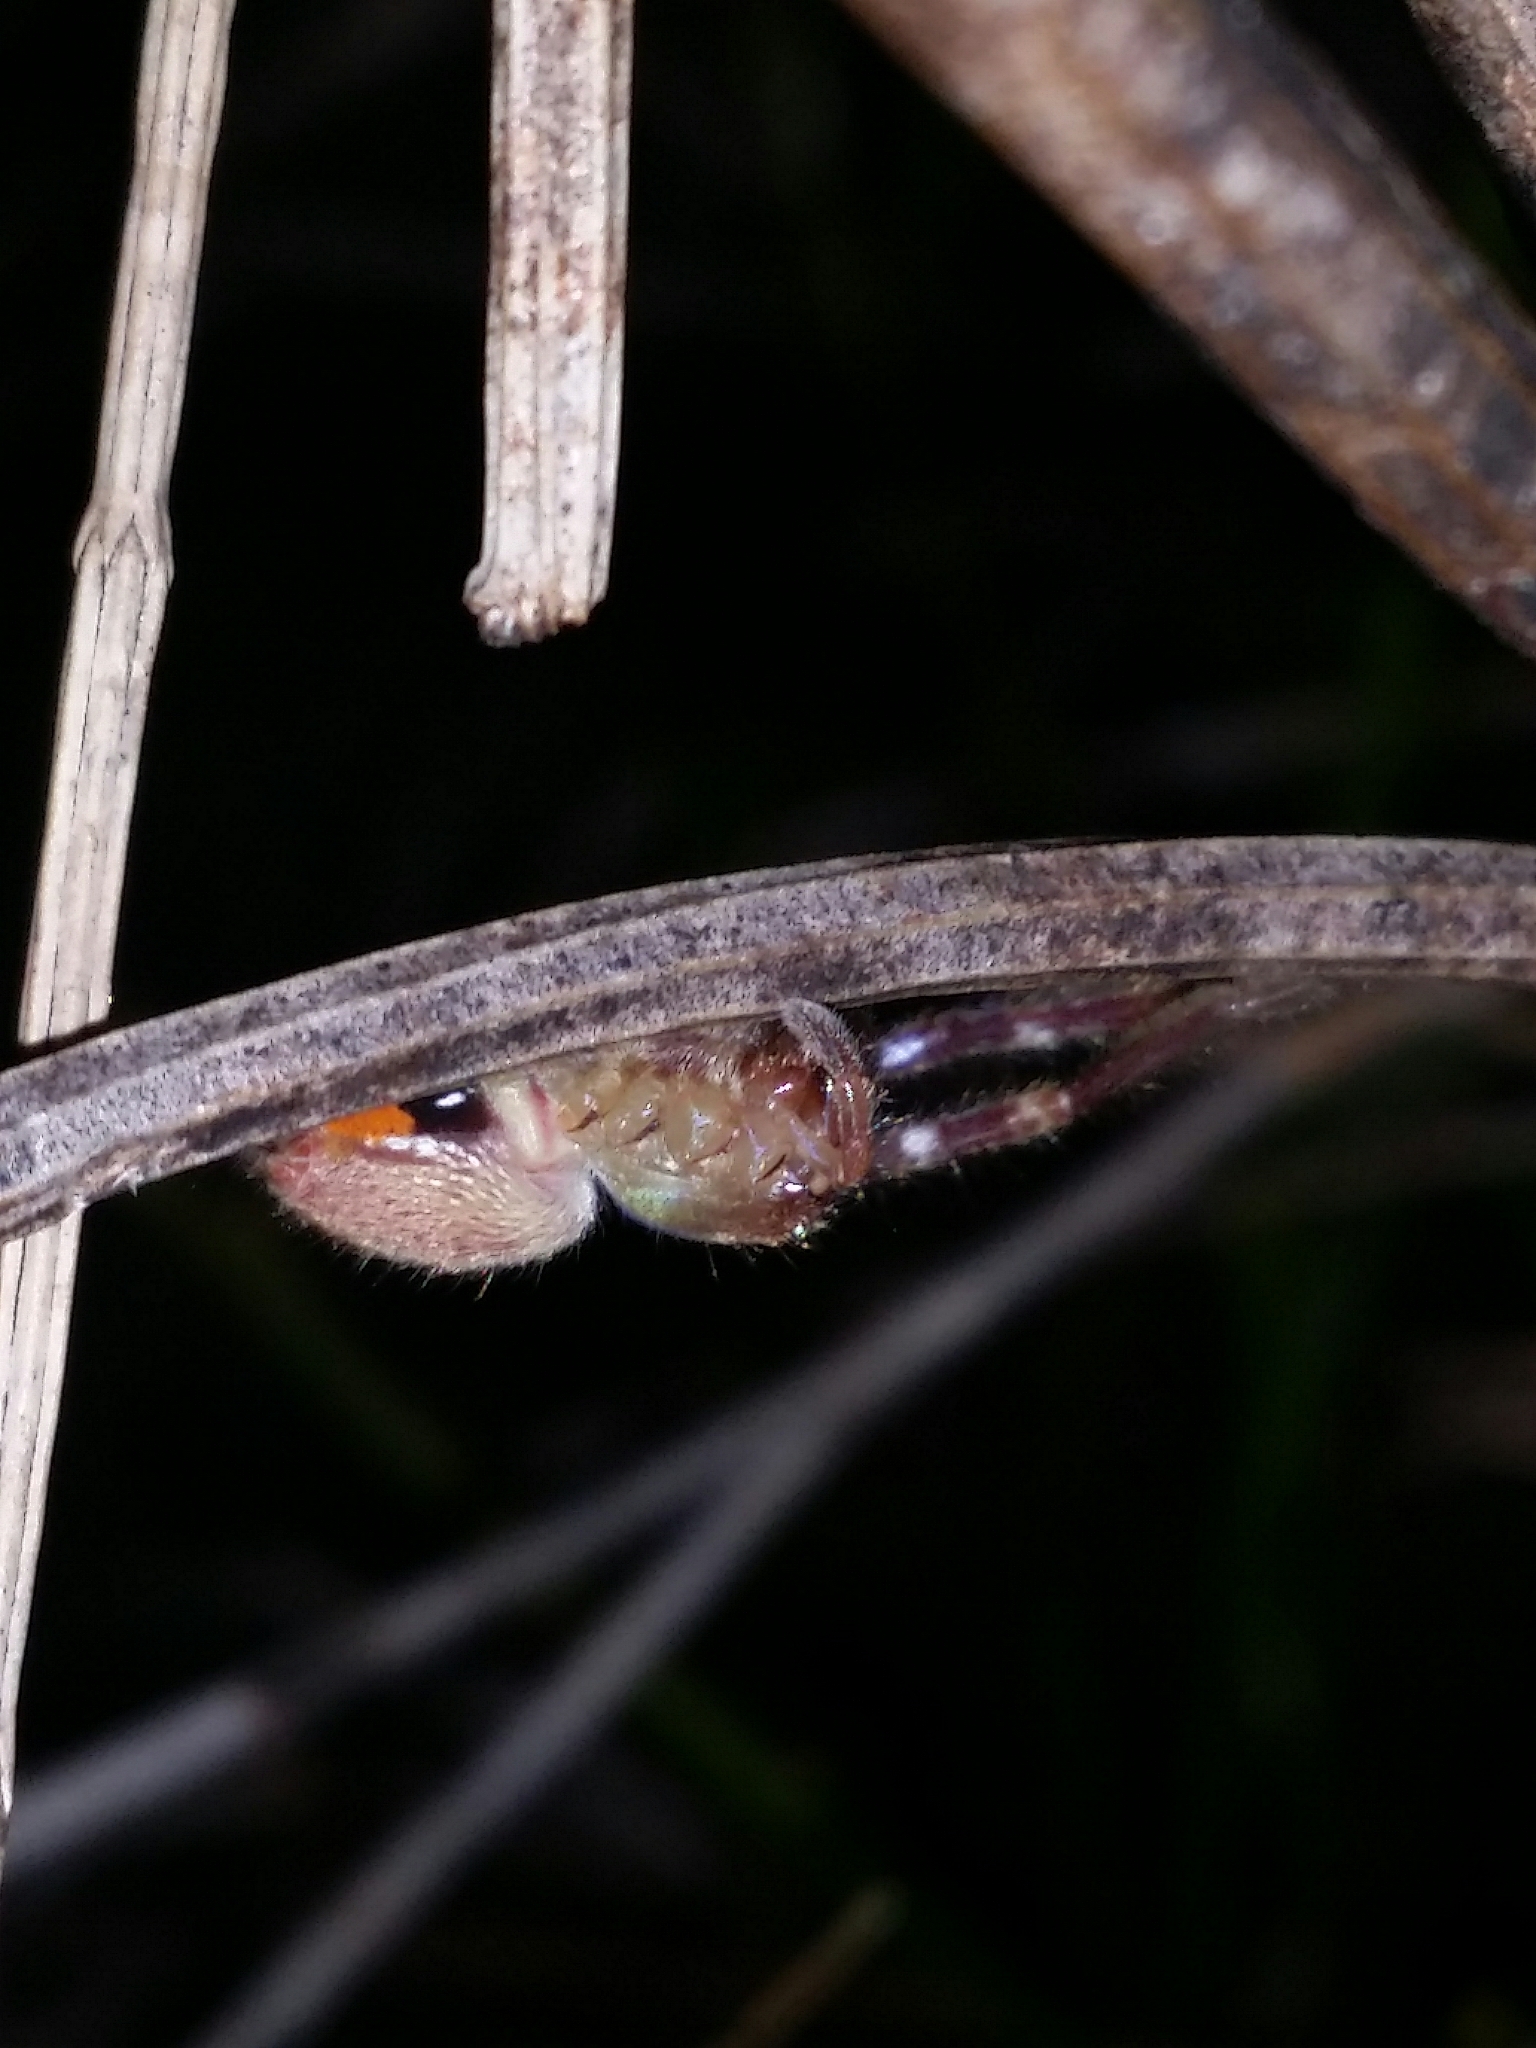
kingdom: Animalia
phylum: Arthropoda
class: Arachnida
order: Araneae
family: Sparassidae
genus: Neosparassus
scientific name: Neosparassus calligaster
